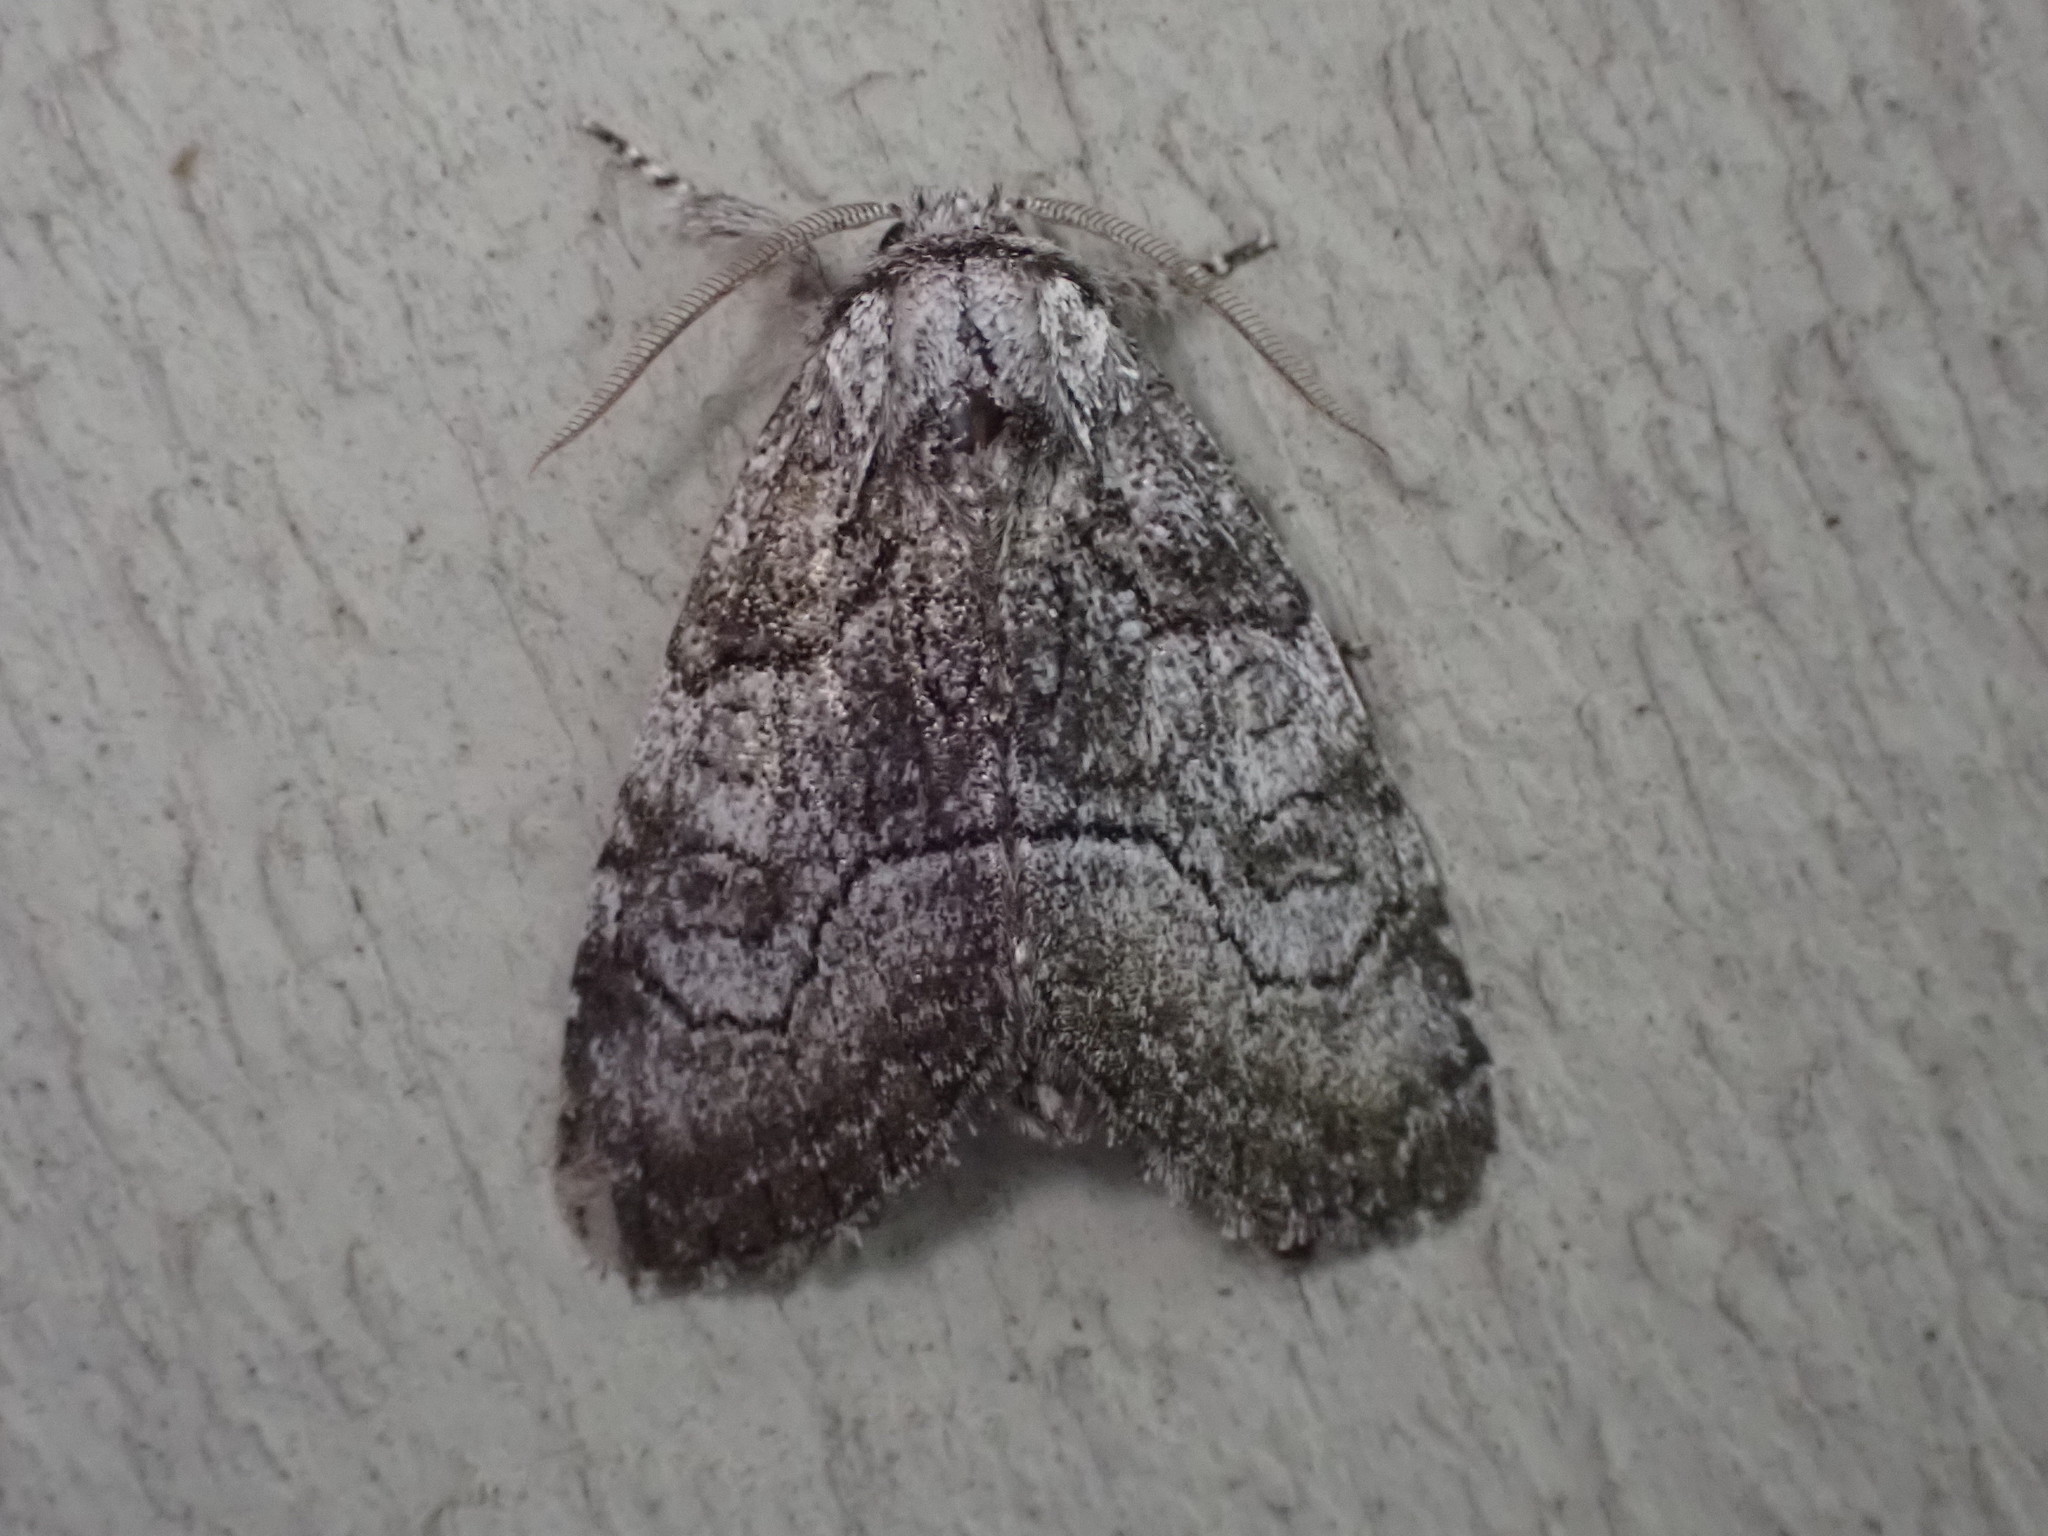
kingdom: Animalia
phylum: Arthropoda
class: Insecta
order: Lepidoptera
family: Noctuidae
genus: Raphia
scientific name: Raphia frater
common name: Brother
